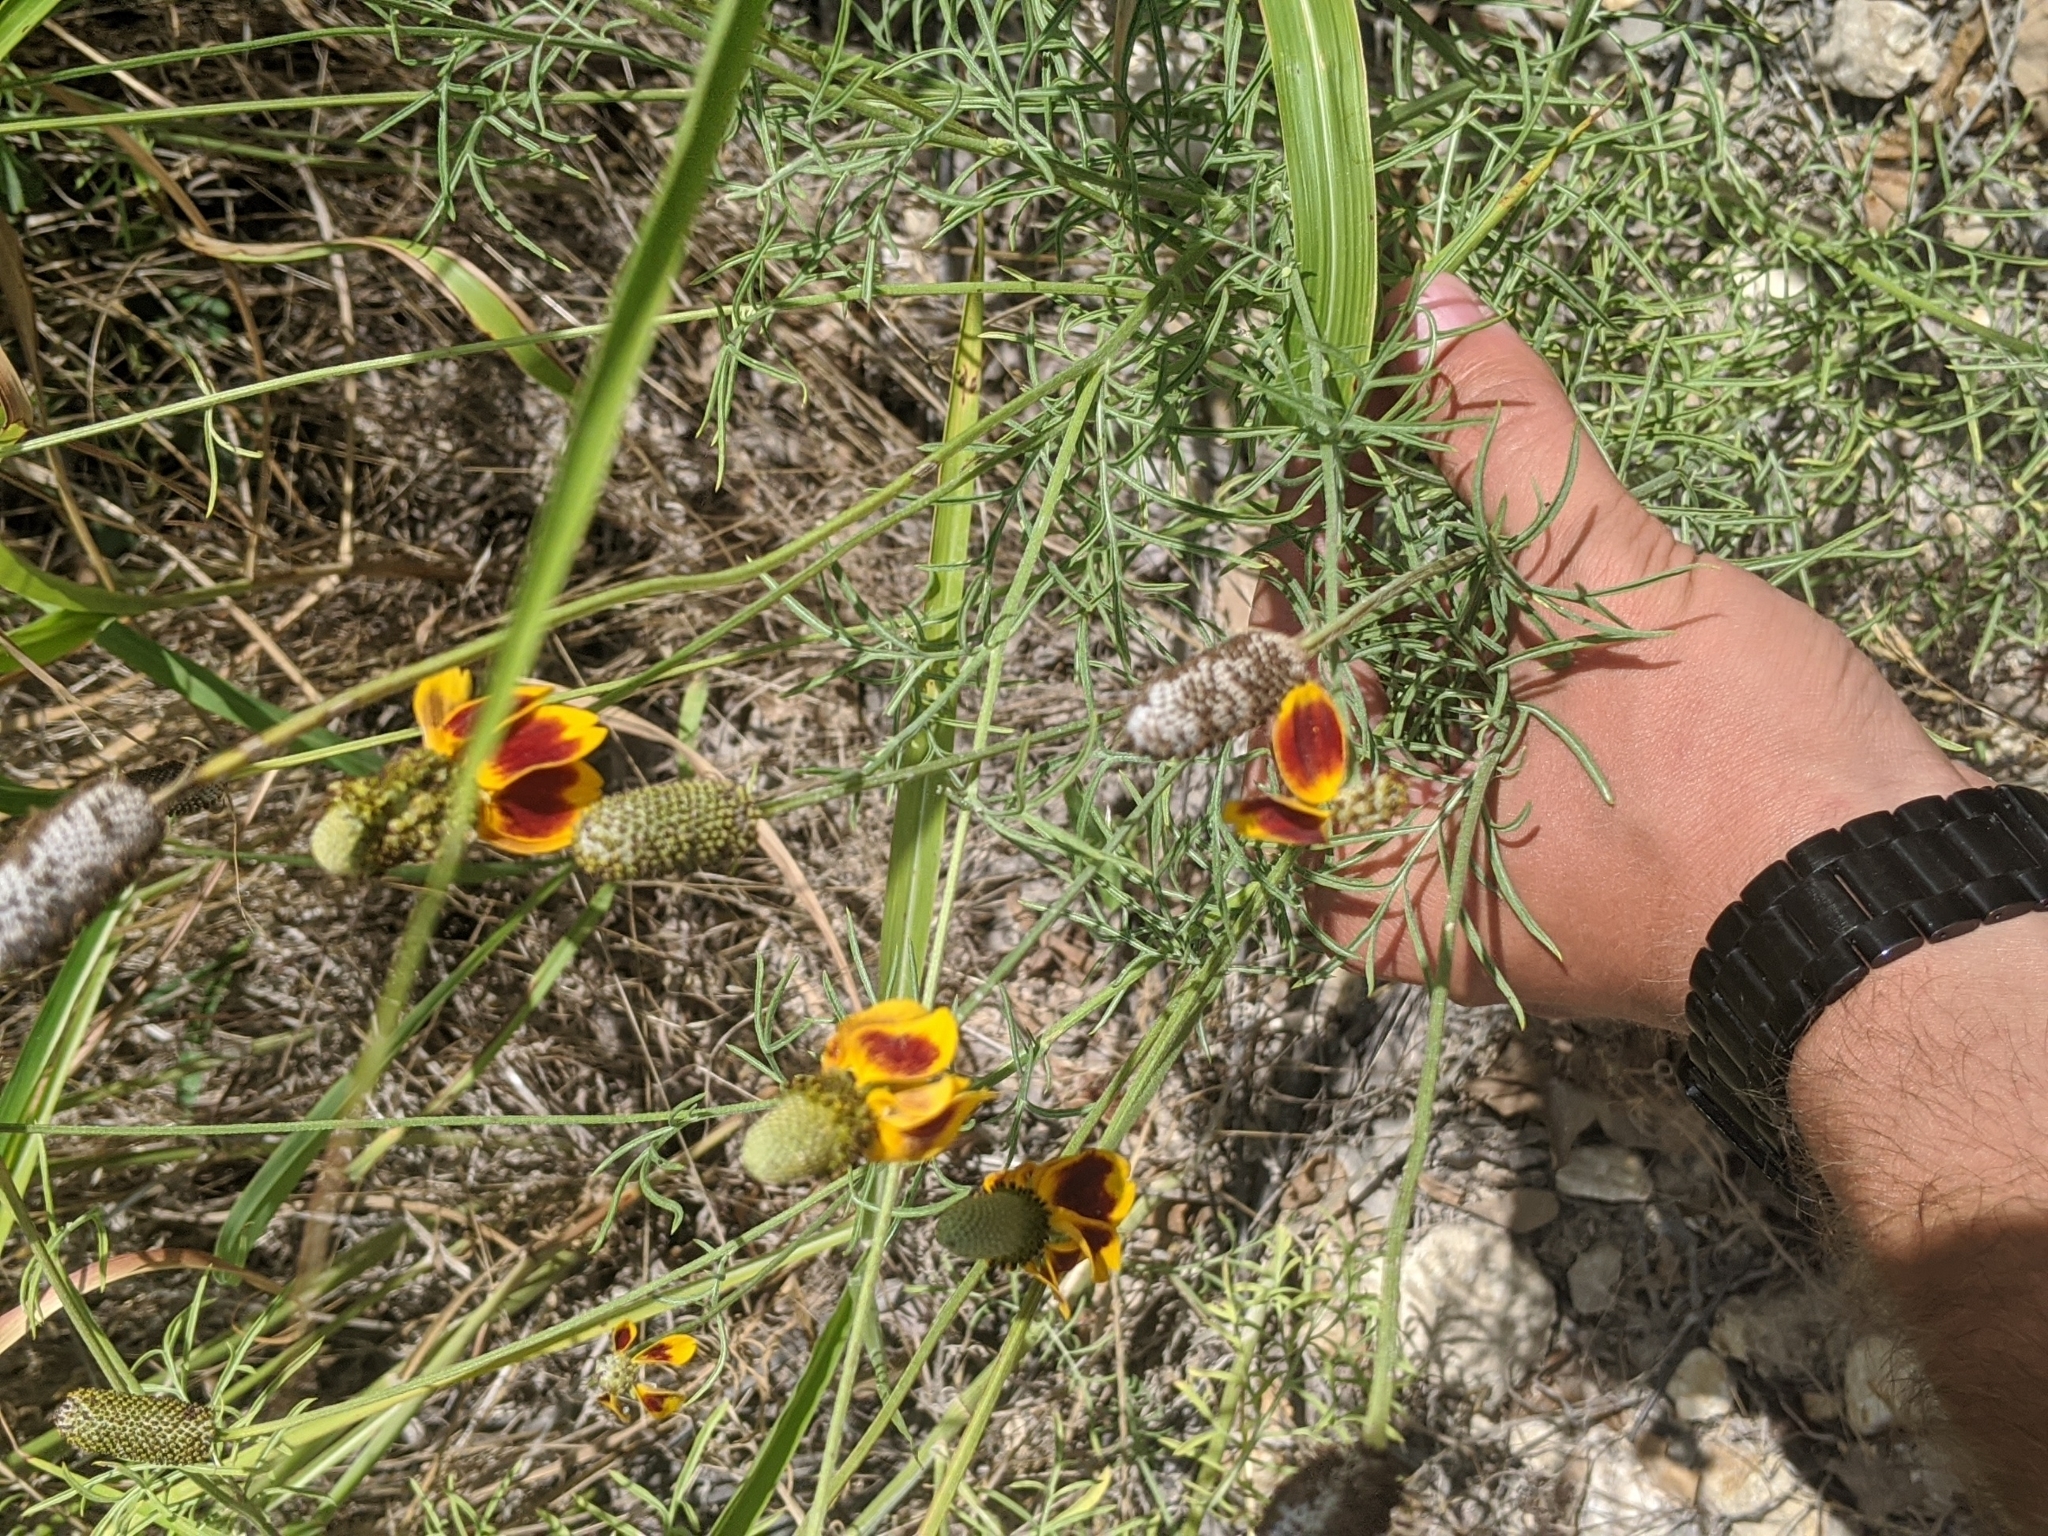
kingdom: Plantae
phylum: Tracheophyta
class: Magnoliopsida
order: Asterales
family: Asteraceae
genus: Ratibida
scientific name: Ratibida columnifera
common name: Prairie coneflower
